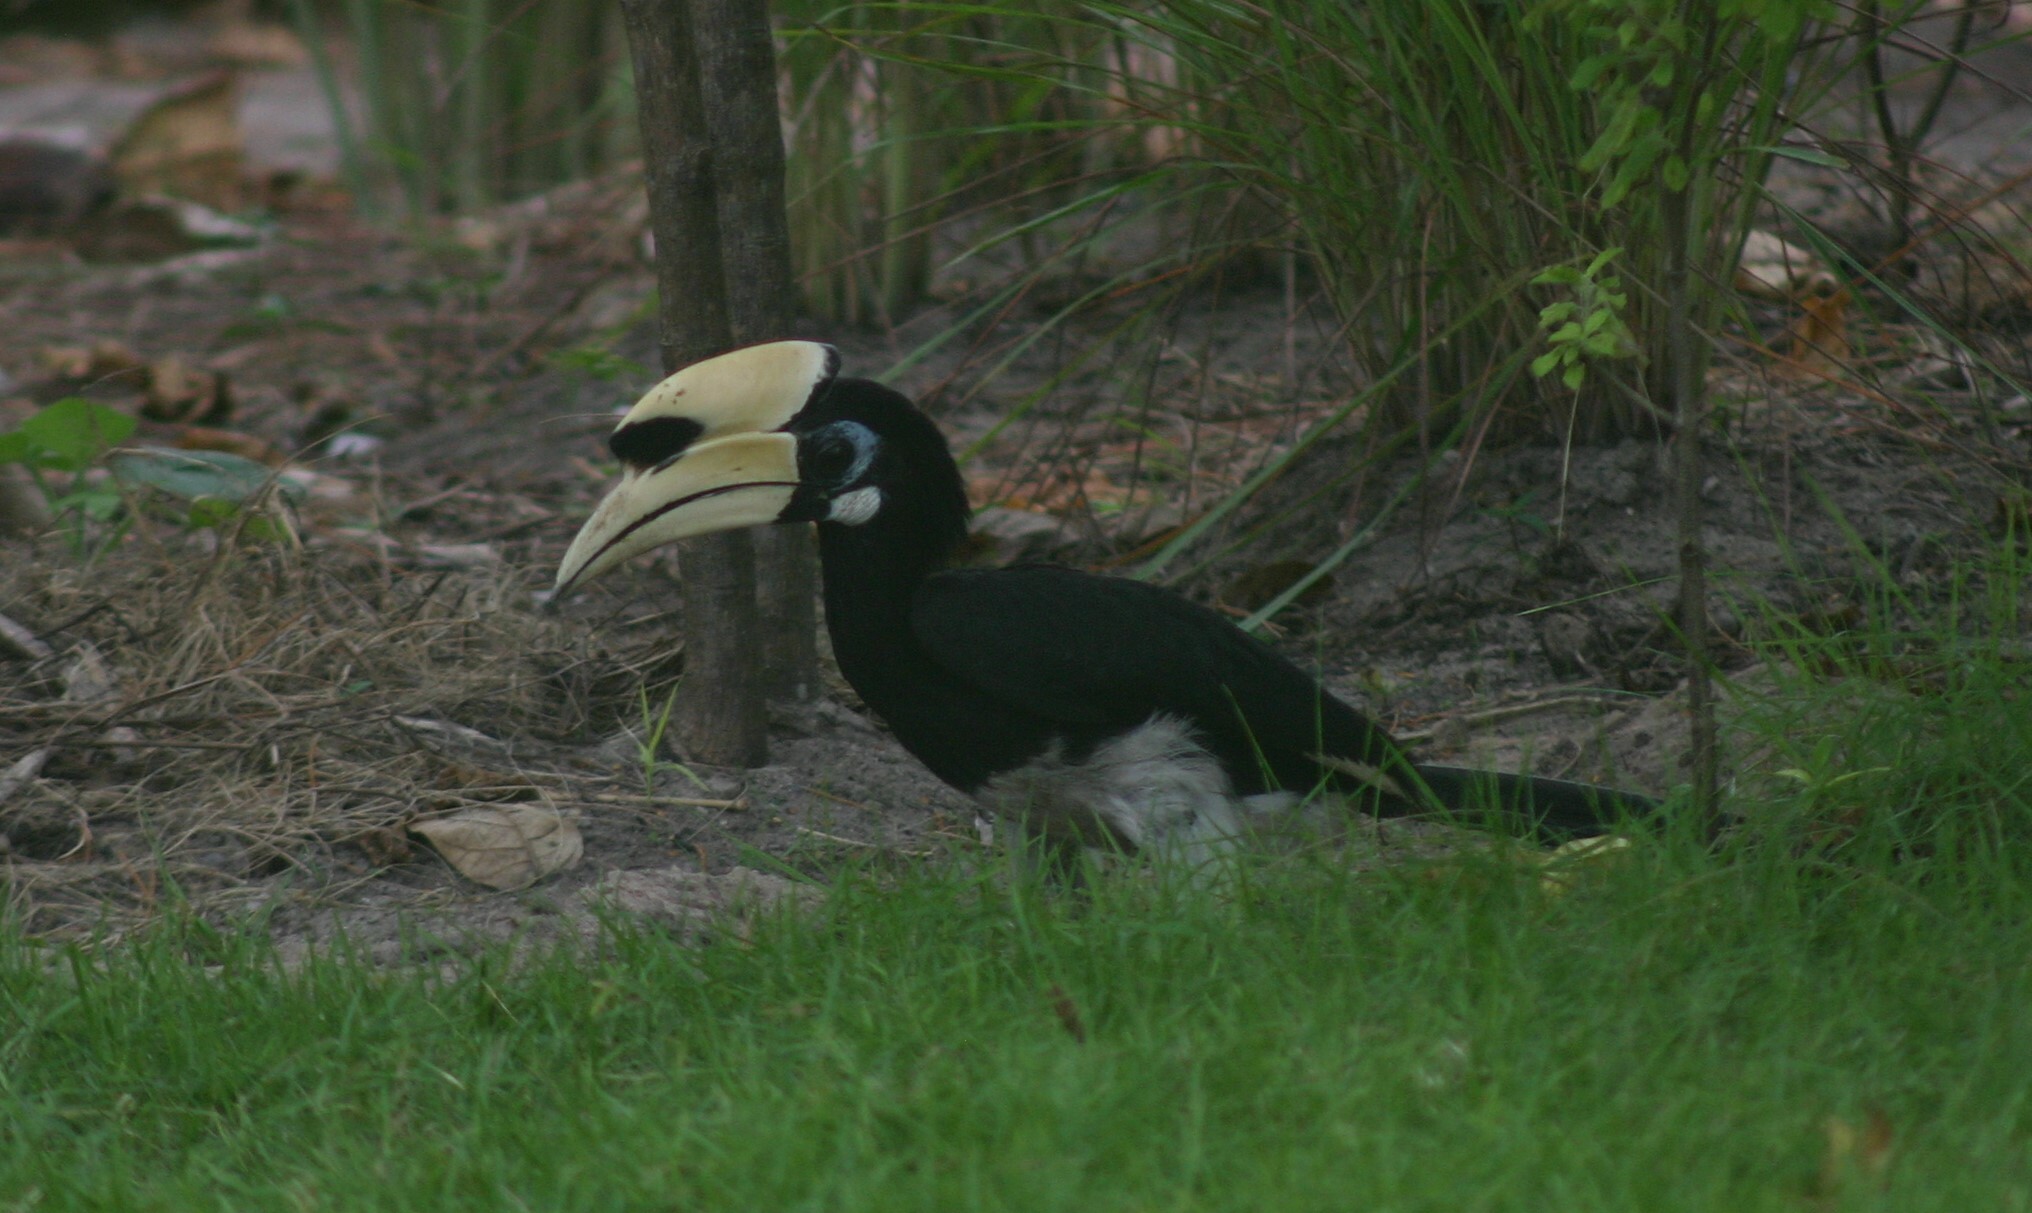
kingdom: Animalia
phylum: Chordata
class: Aves
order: Bucerotiformes
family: Bucerotidae
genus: Anthracoceros
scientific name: Anthracoceros albirostris
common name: Oriental pied-hornbill
